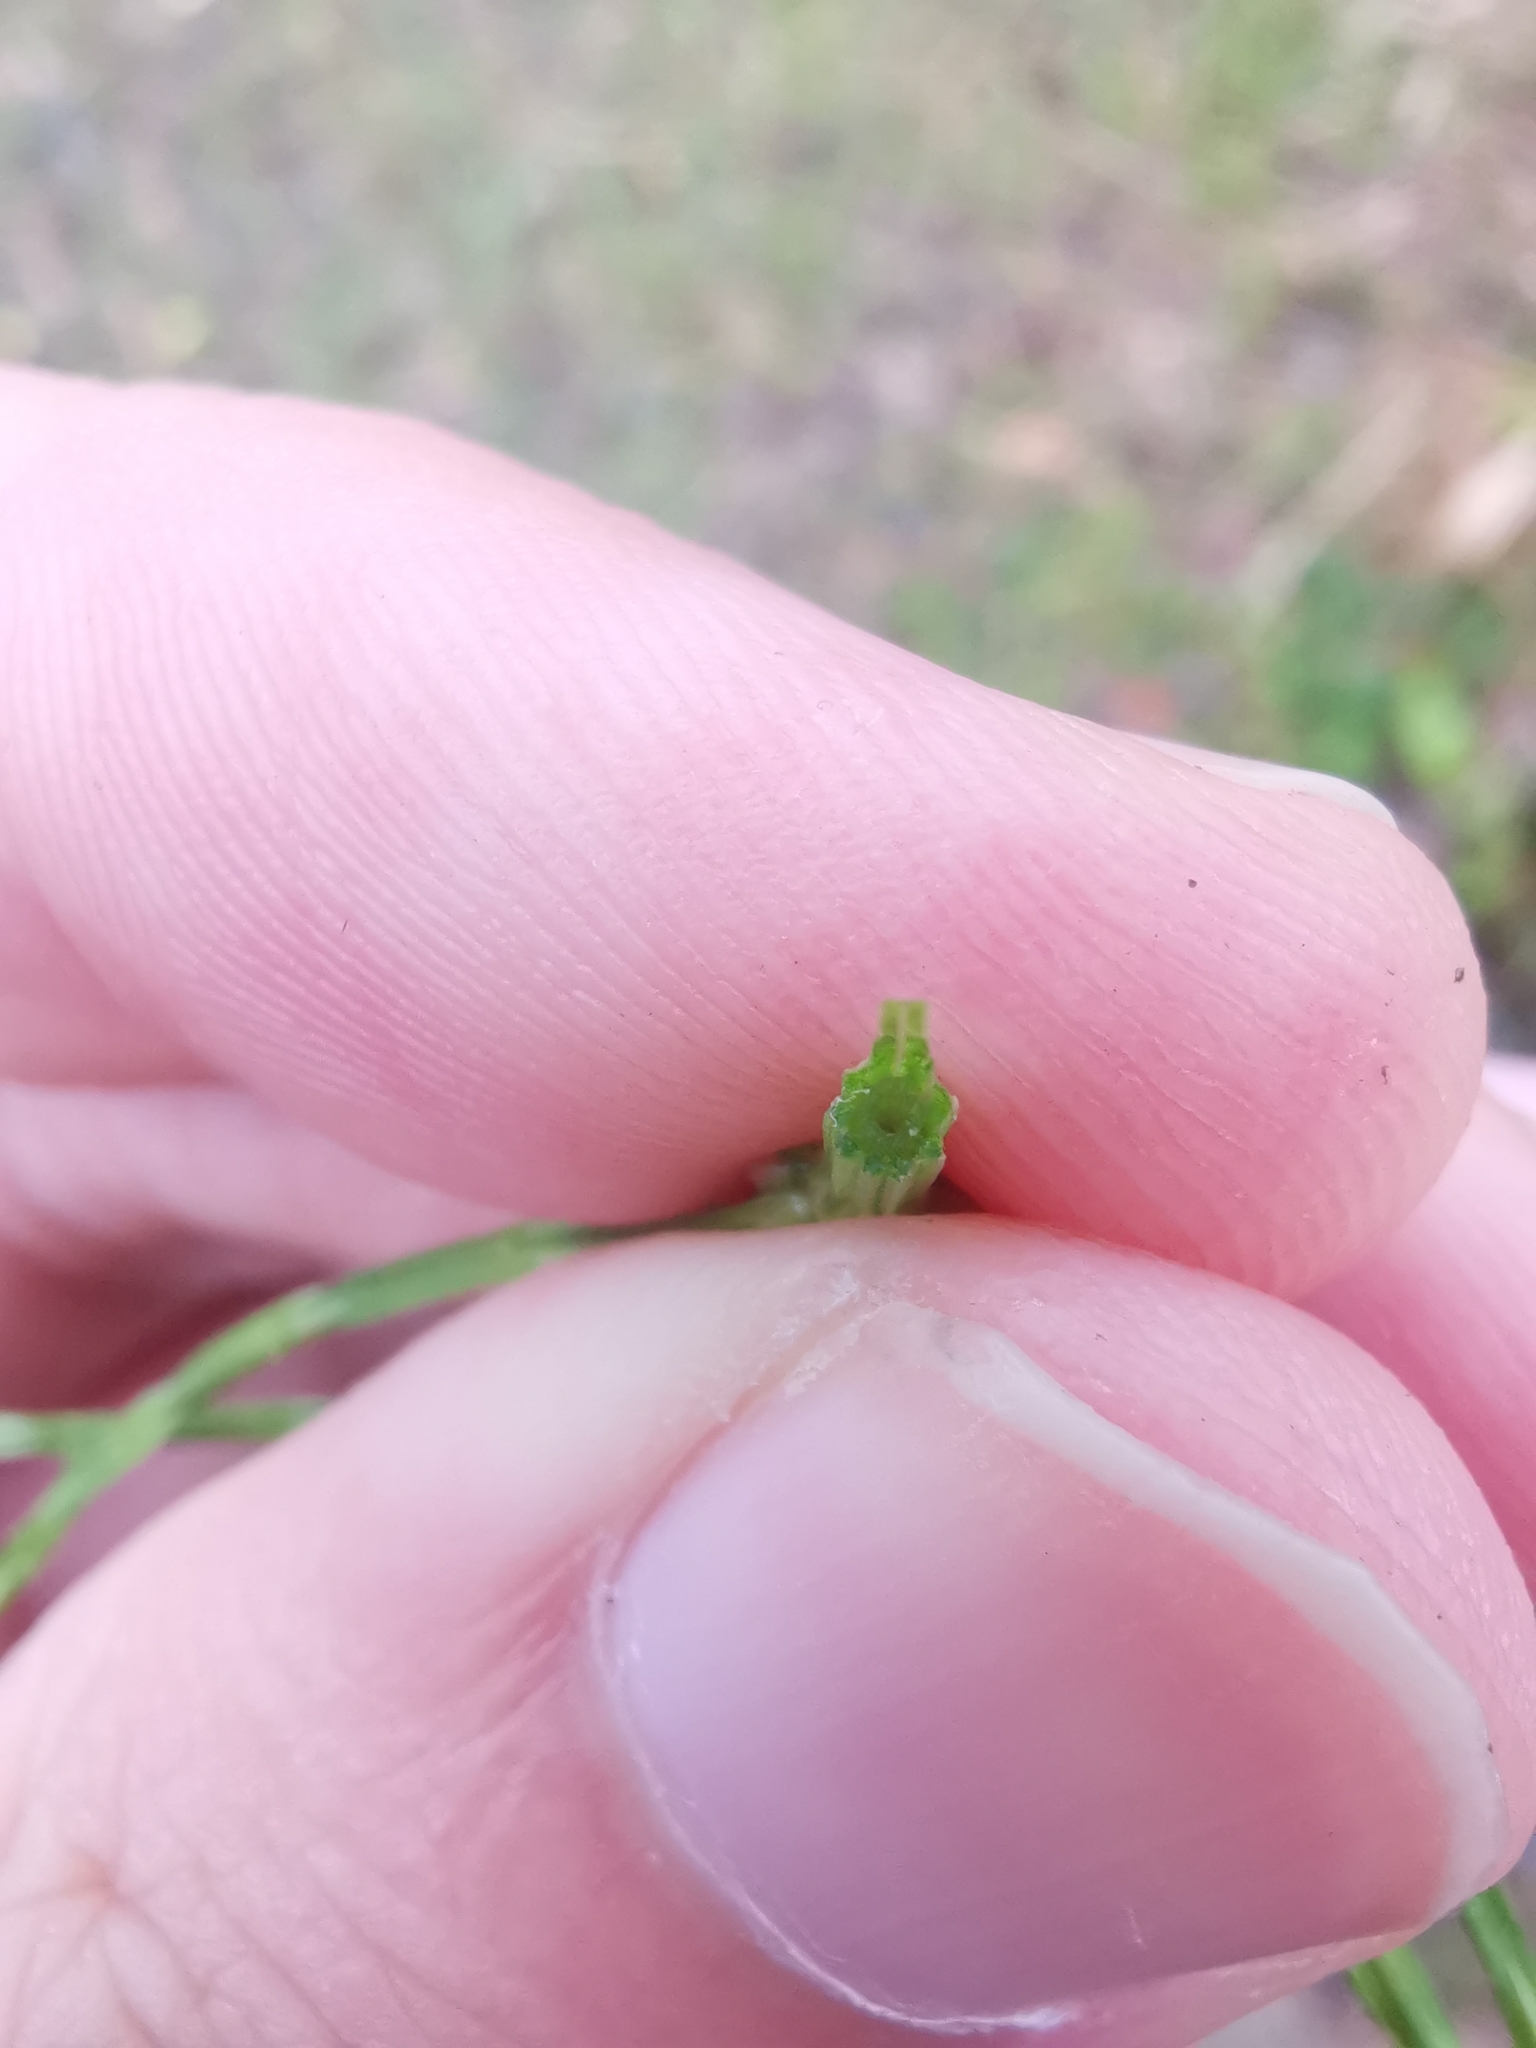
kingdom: Plantae
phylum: Tracheophyta
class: Polypodiopsida
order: Equisetales
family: Equisetaceae
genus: Equisetum
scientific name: Equisetum arvense
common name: Field horsetail
